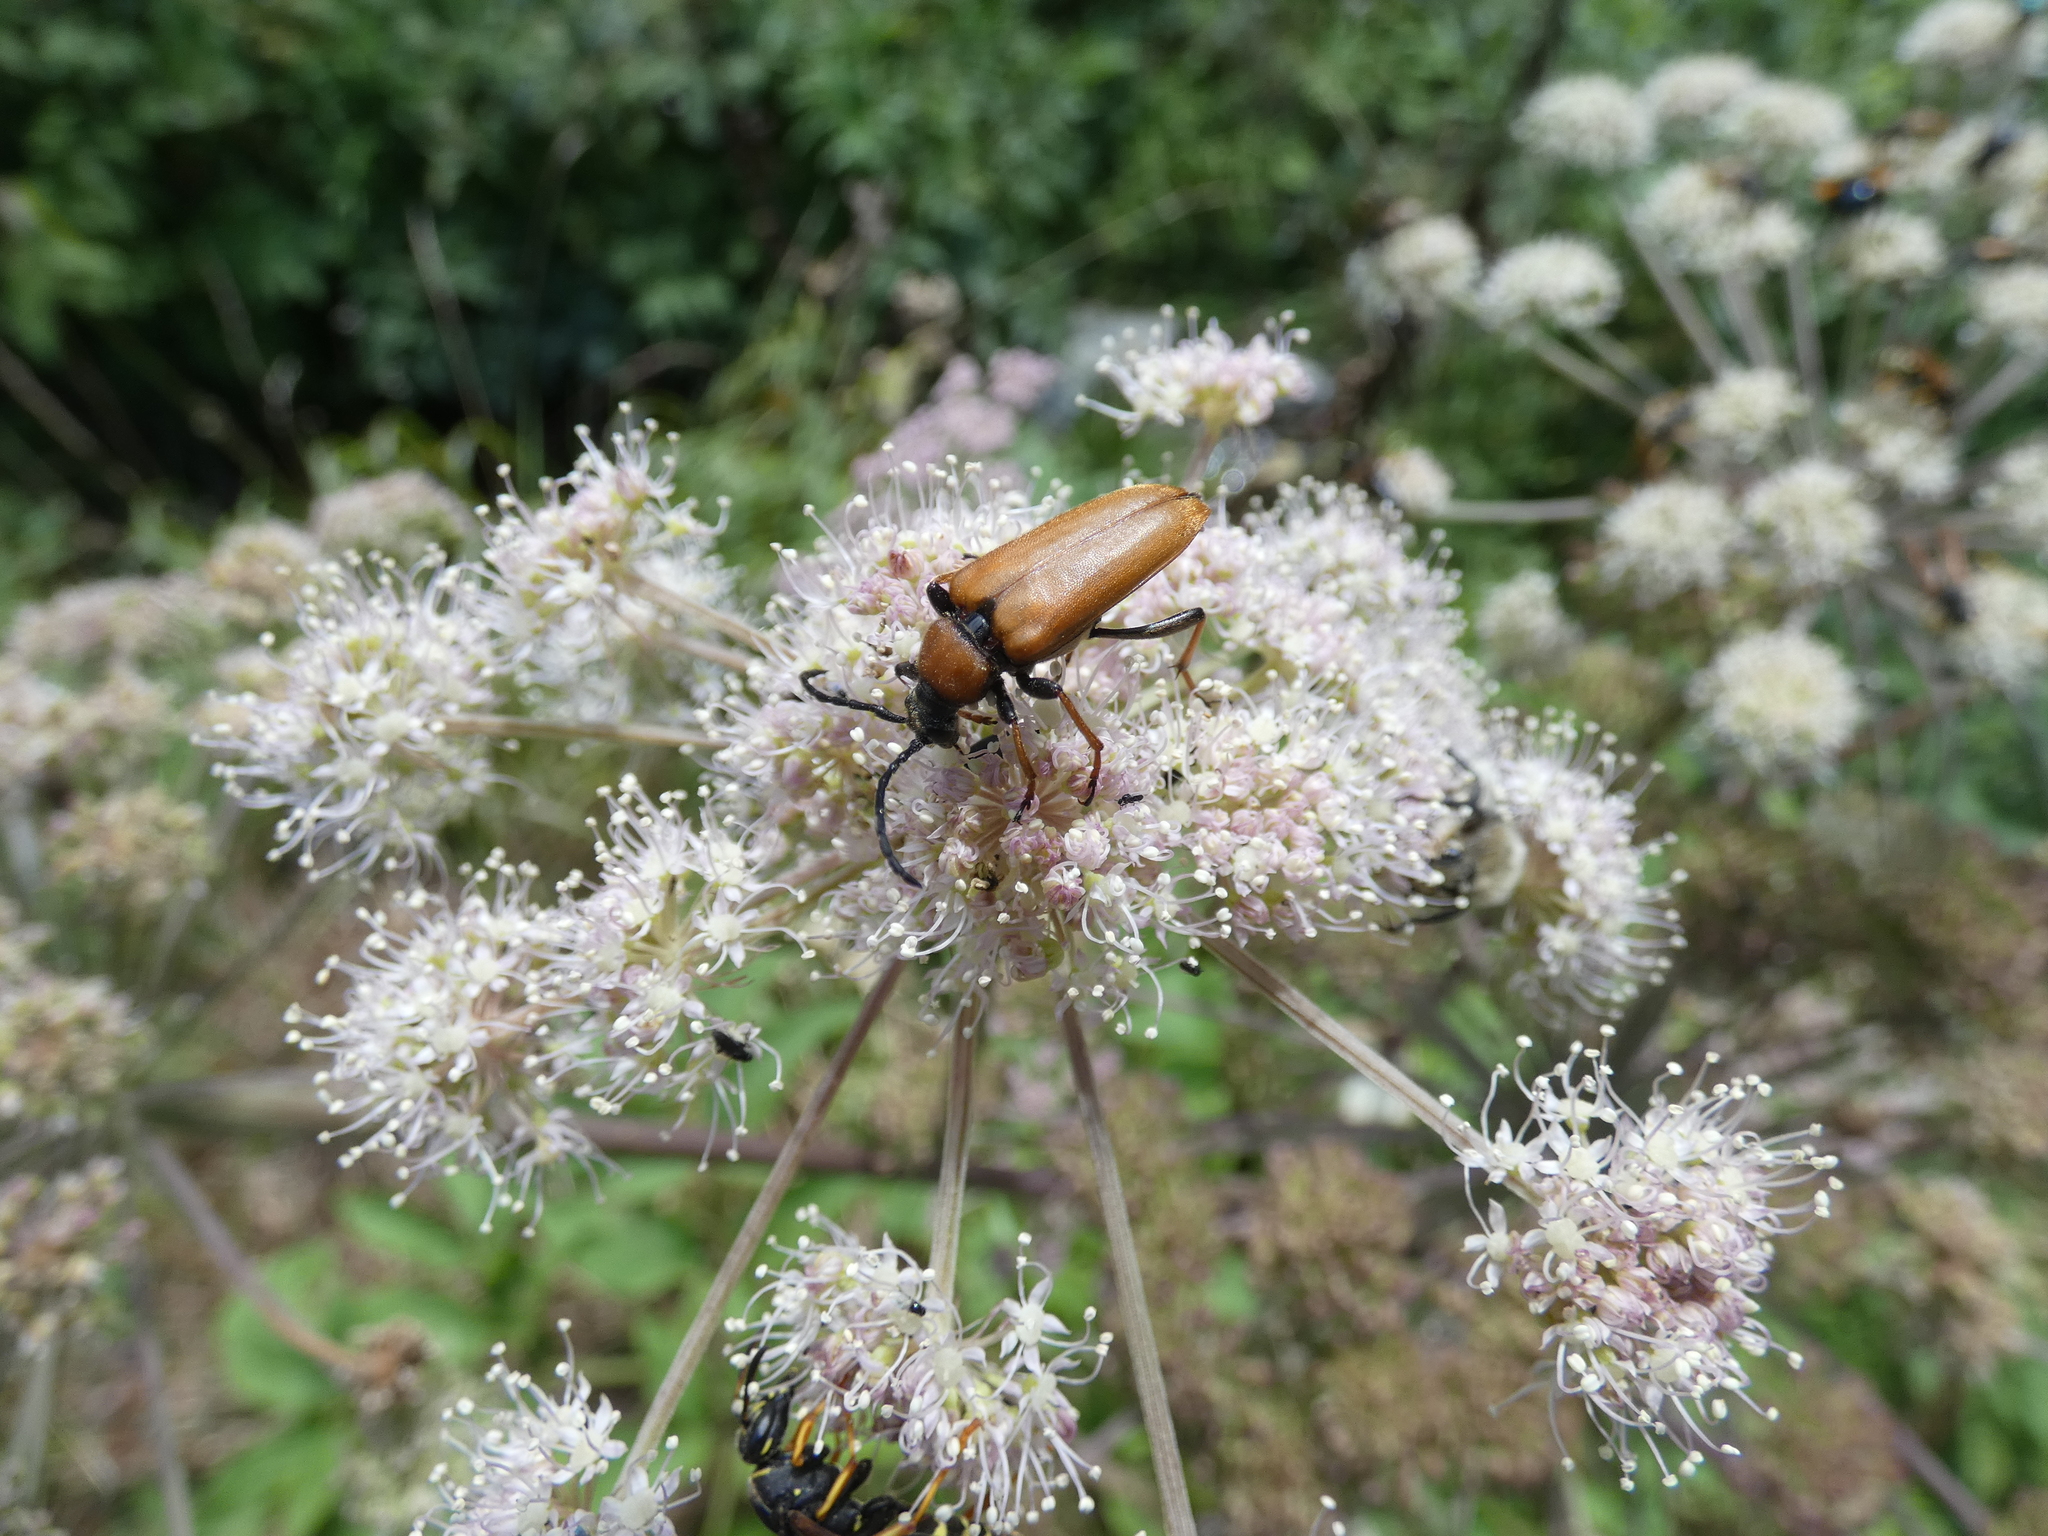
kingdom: Animalia
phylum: Arthropoda
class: Insecta
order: Coleoptera
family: Cerambycidae
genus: Stictoleptura
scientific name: Stictoleptura rubra
